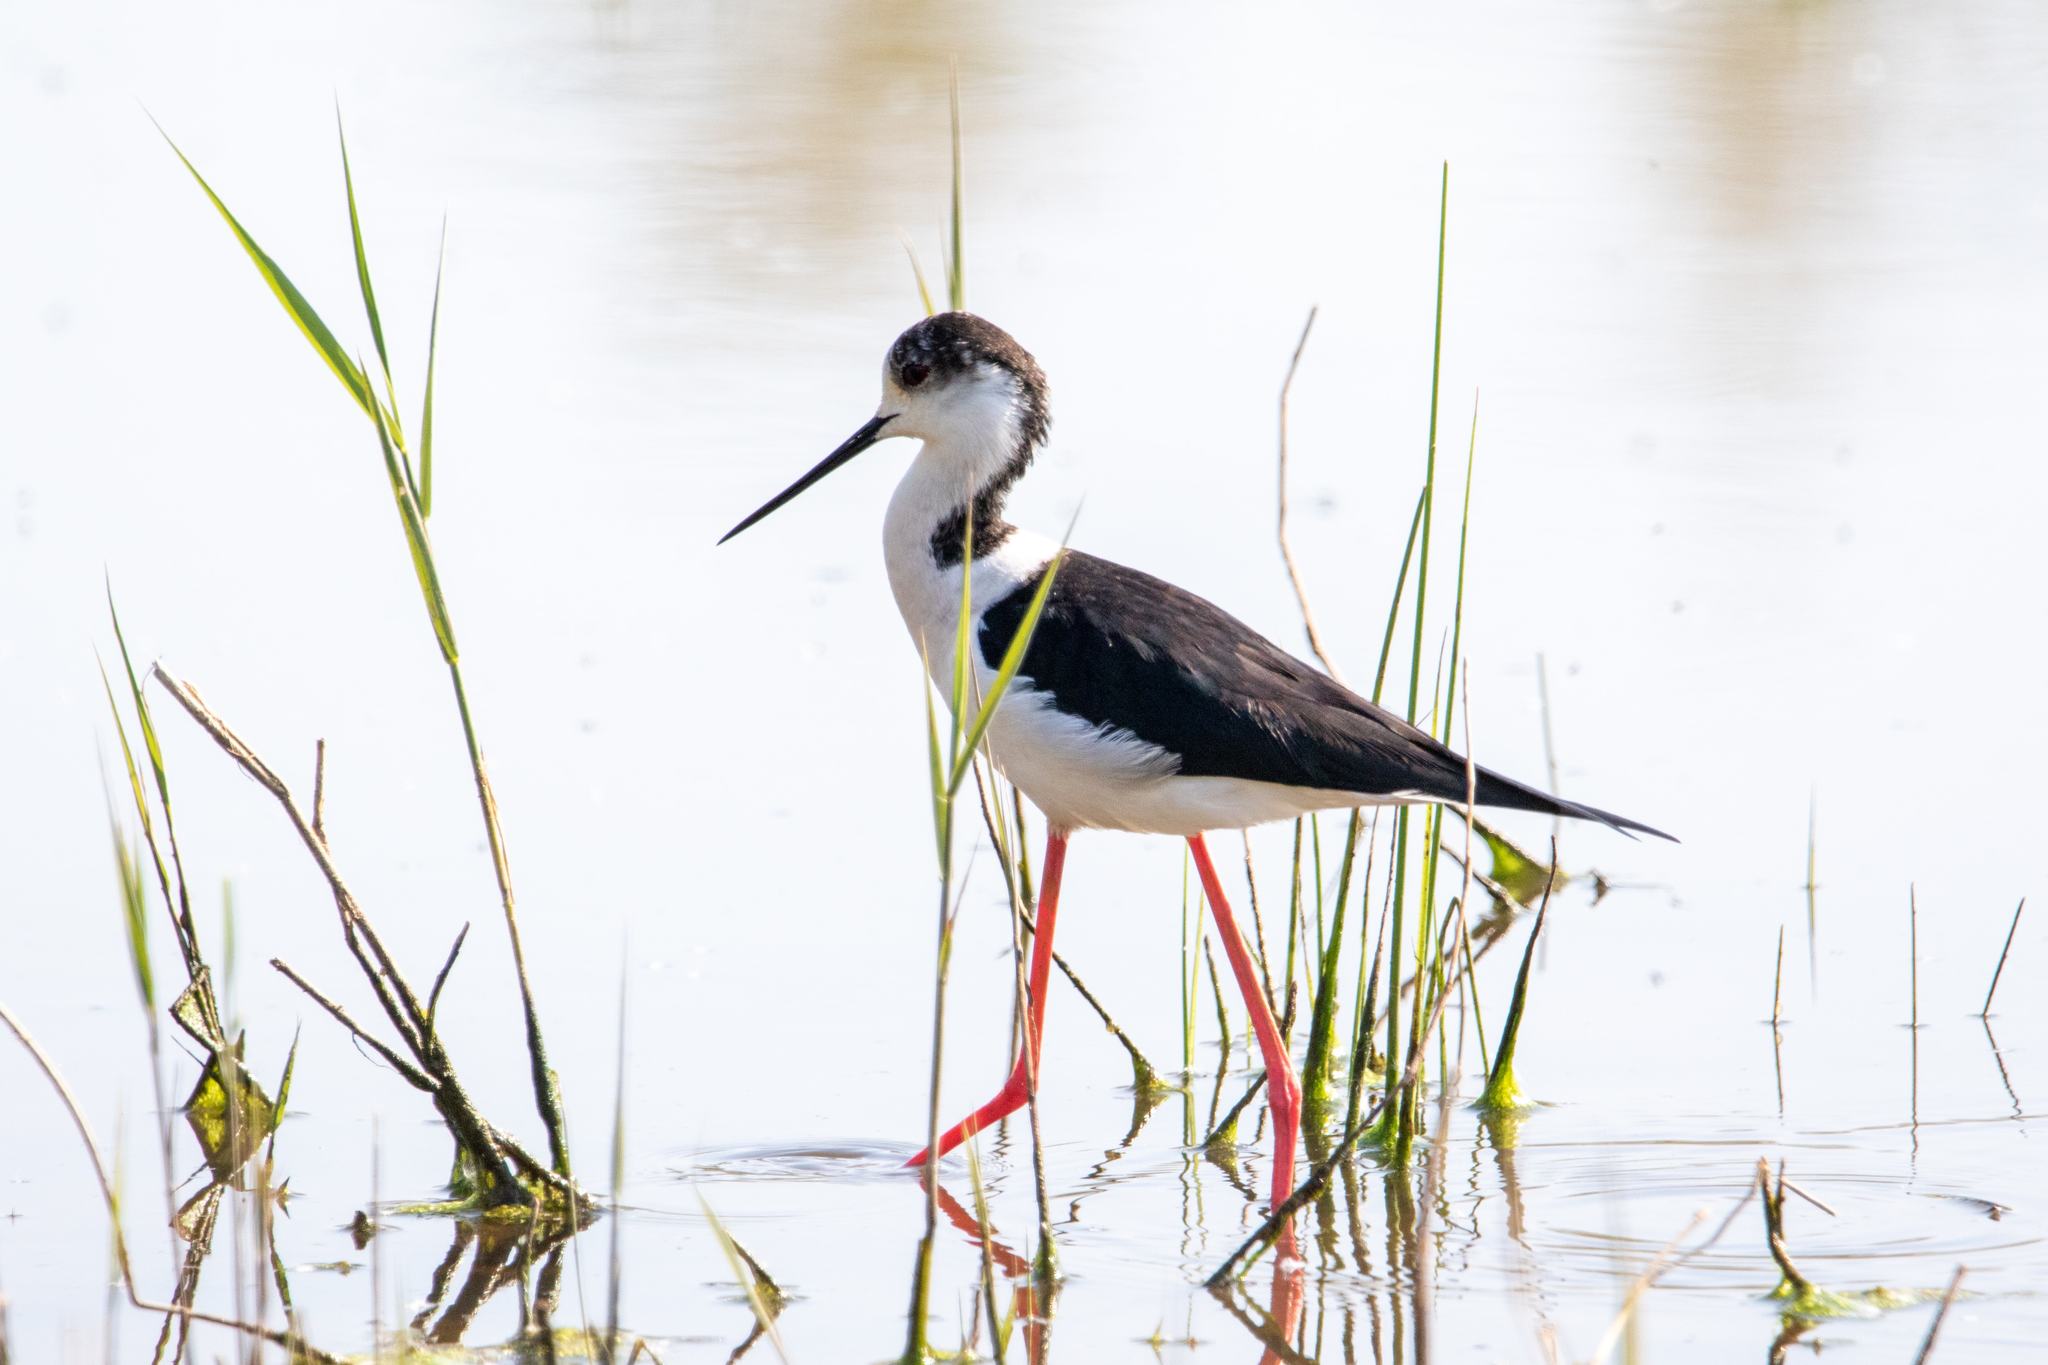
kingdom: Animalia
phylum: Chordata
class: Aves
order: Charadriiformes
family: Recurvirostridae
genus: Himantopus
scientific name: Himantopus himantopus
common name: Black-winged stilt
